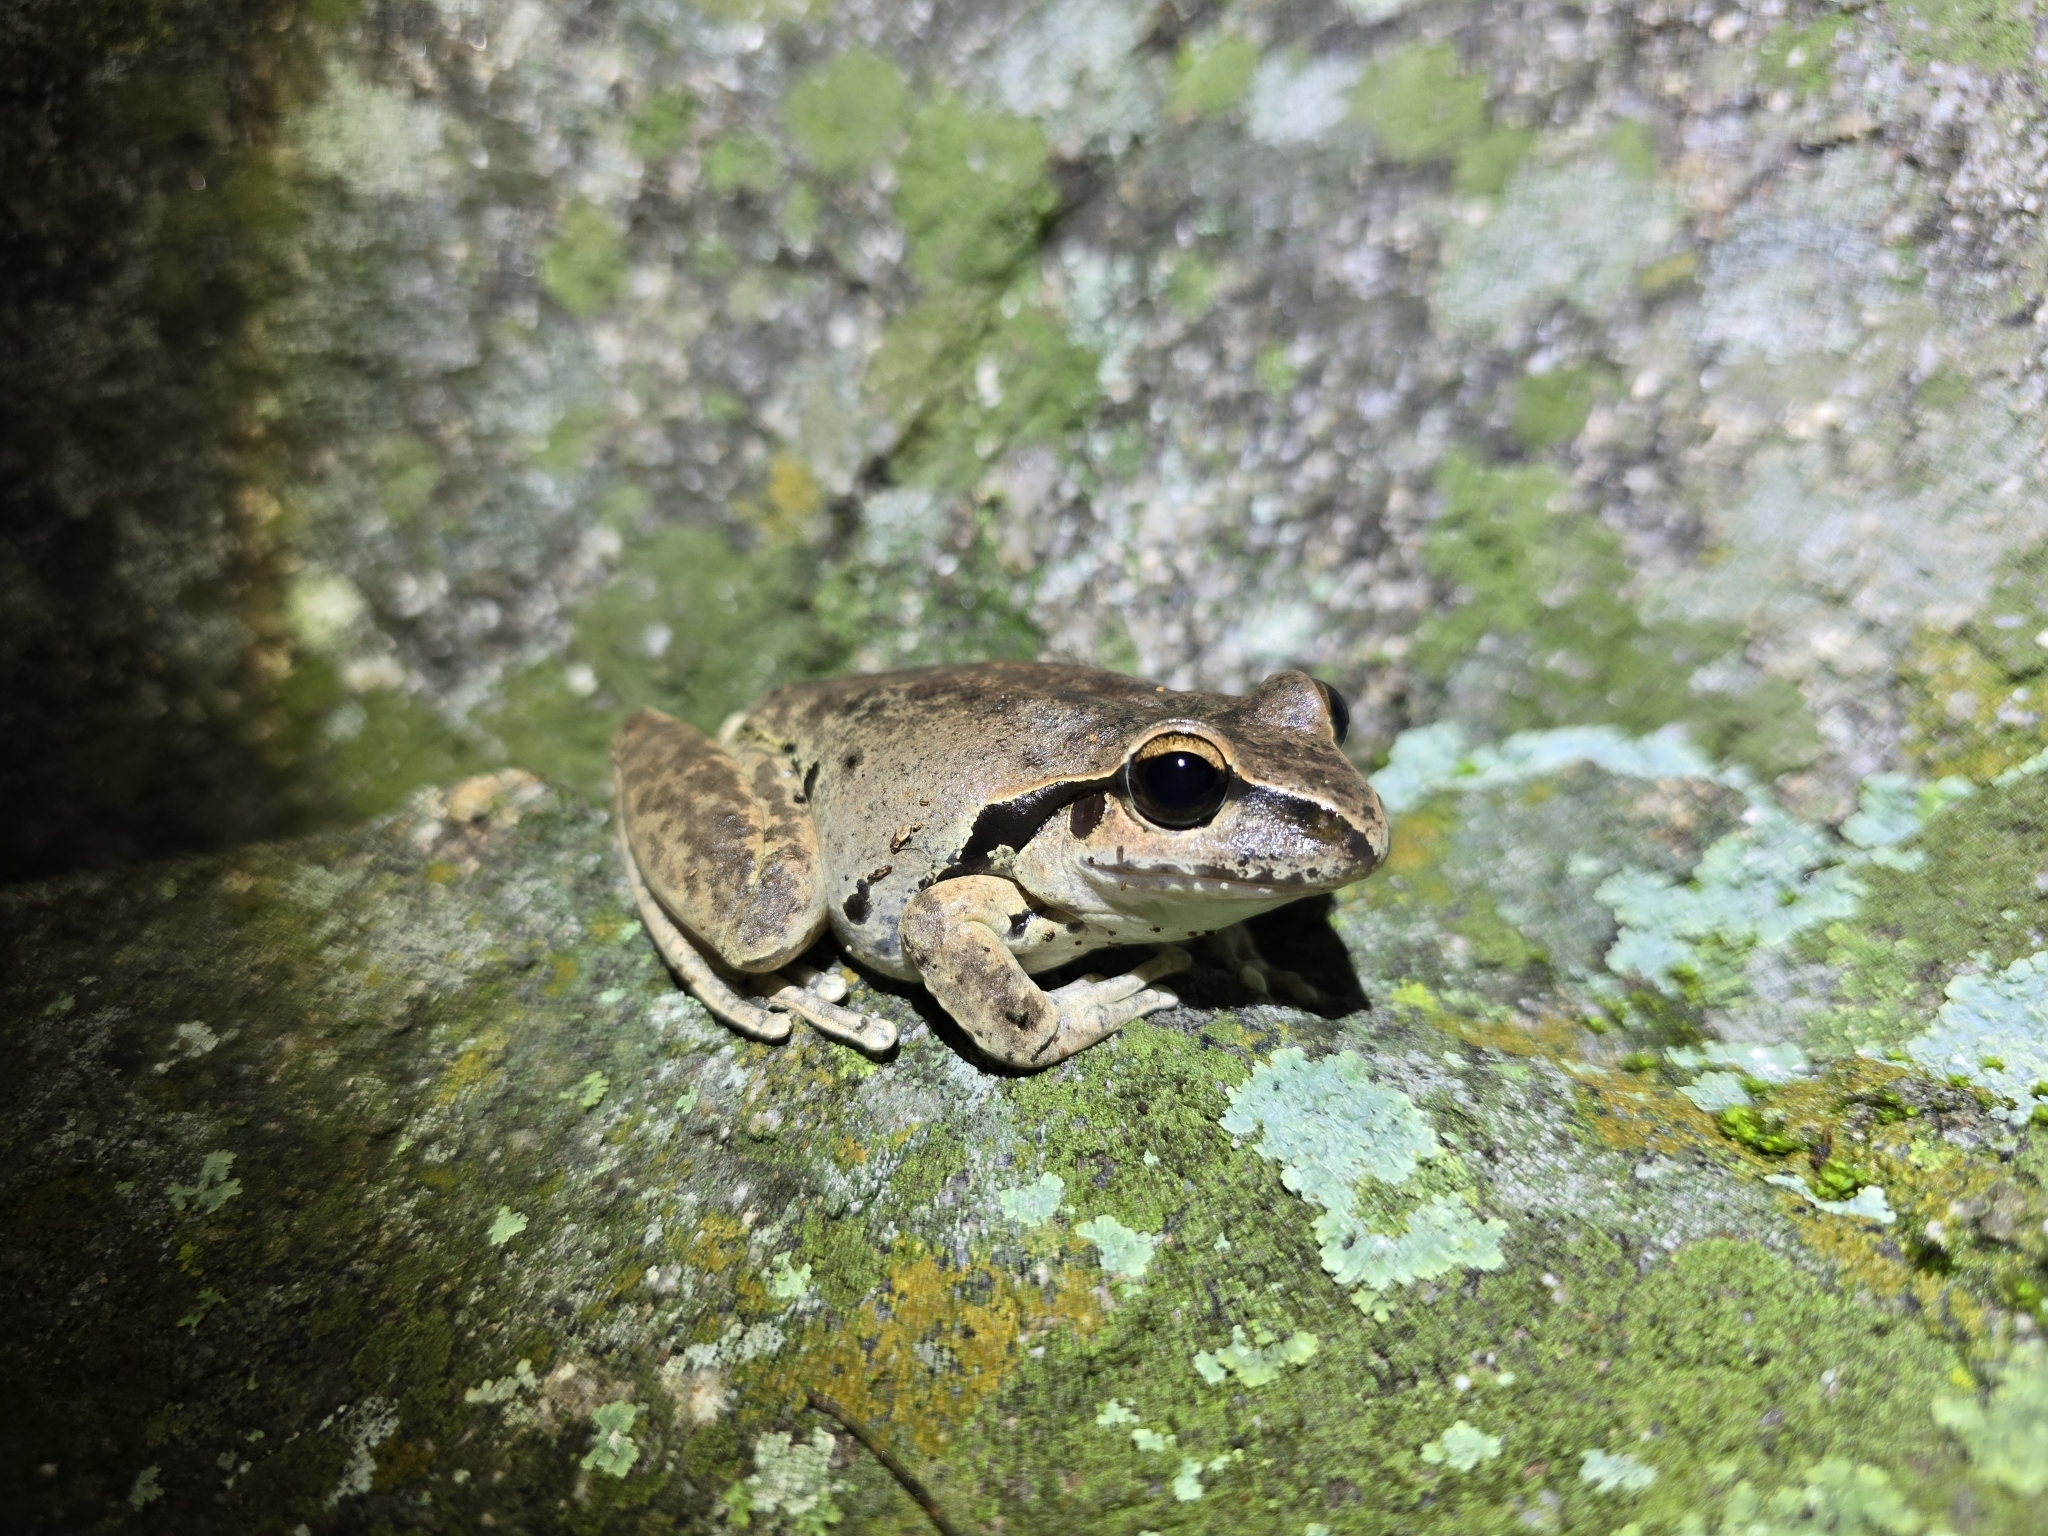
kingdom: Animalia
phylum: Chordata
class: Amphibia
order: Anura
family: Pelodryadidae
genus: Ranoidea
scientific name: Ranoidea wilcoxii
